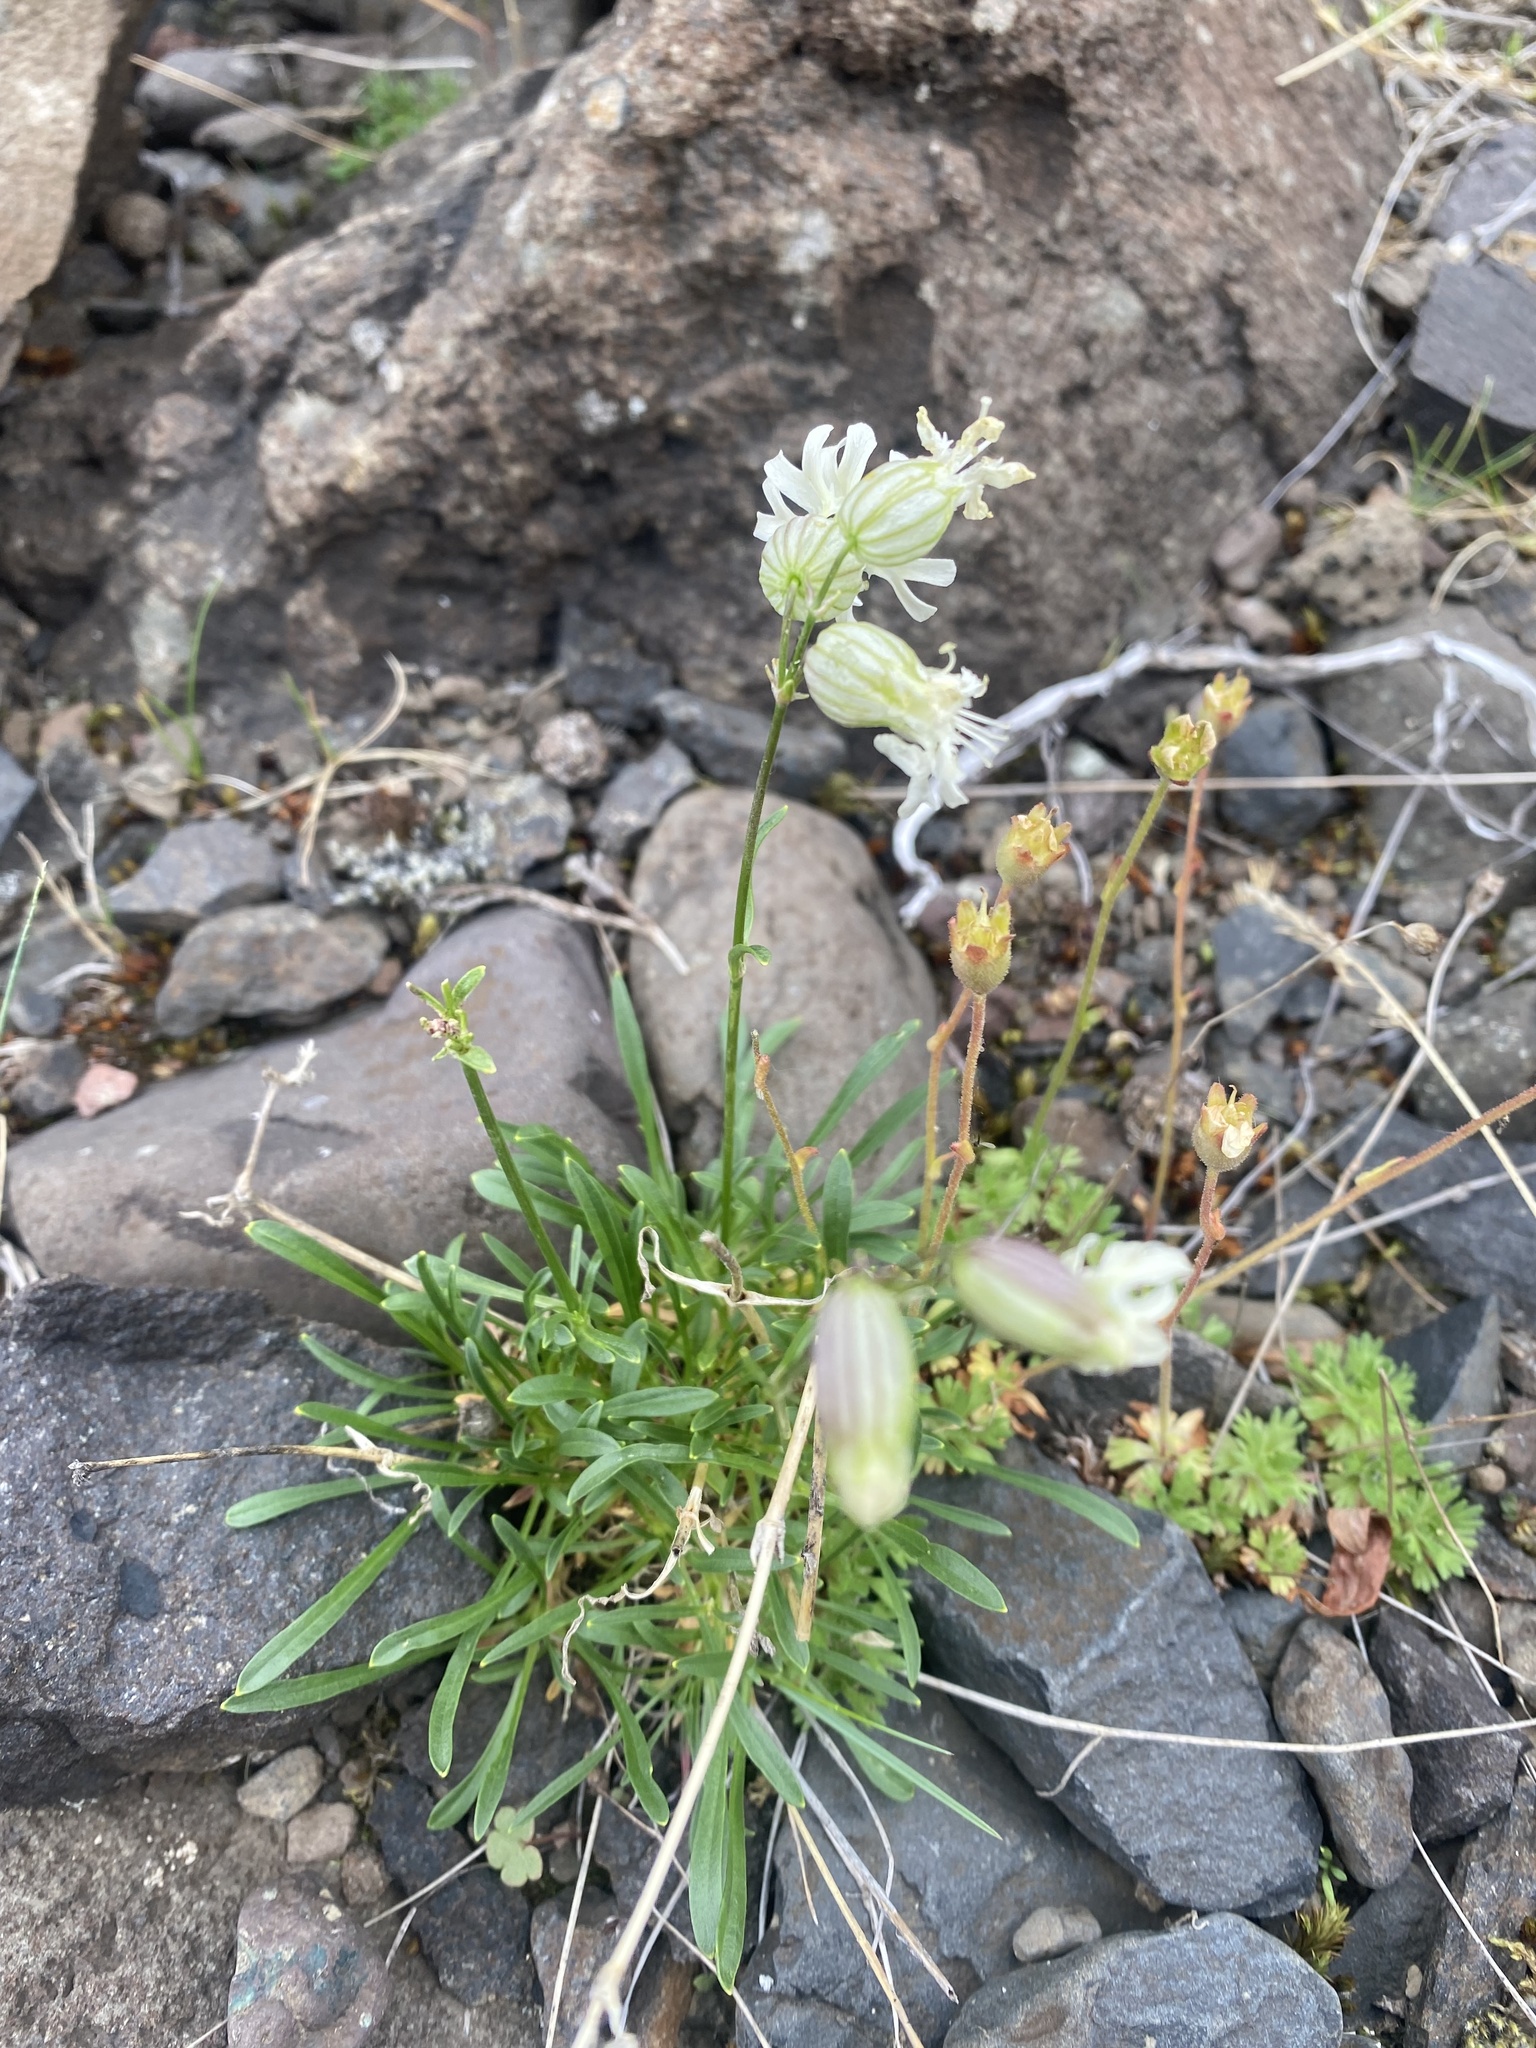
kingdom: Plantae
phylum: Tracheophyta
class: Magnoliopsida
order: Caryophyllales
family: Caryophyllaceae
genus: Silene
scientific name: Silene chamarensis
